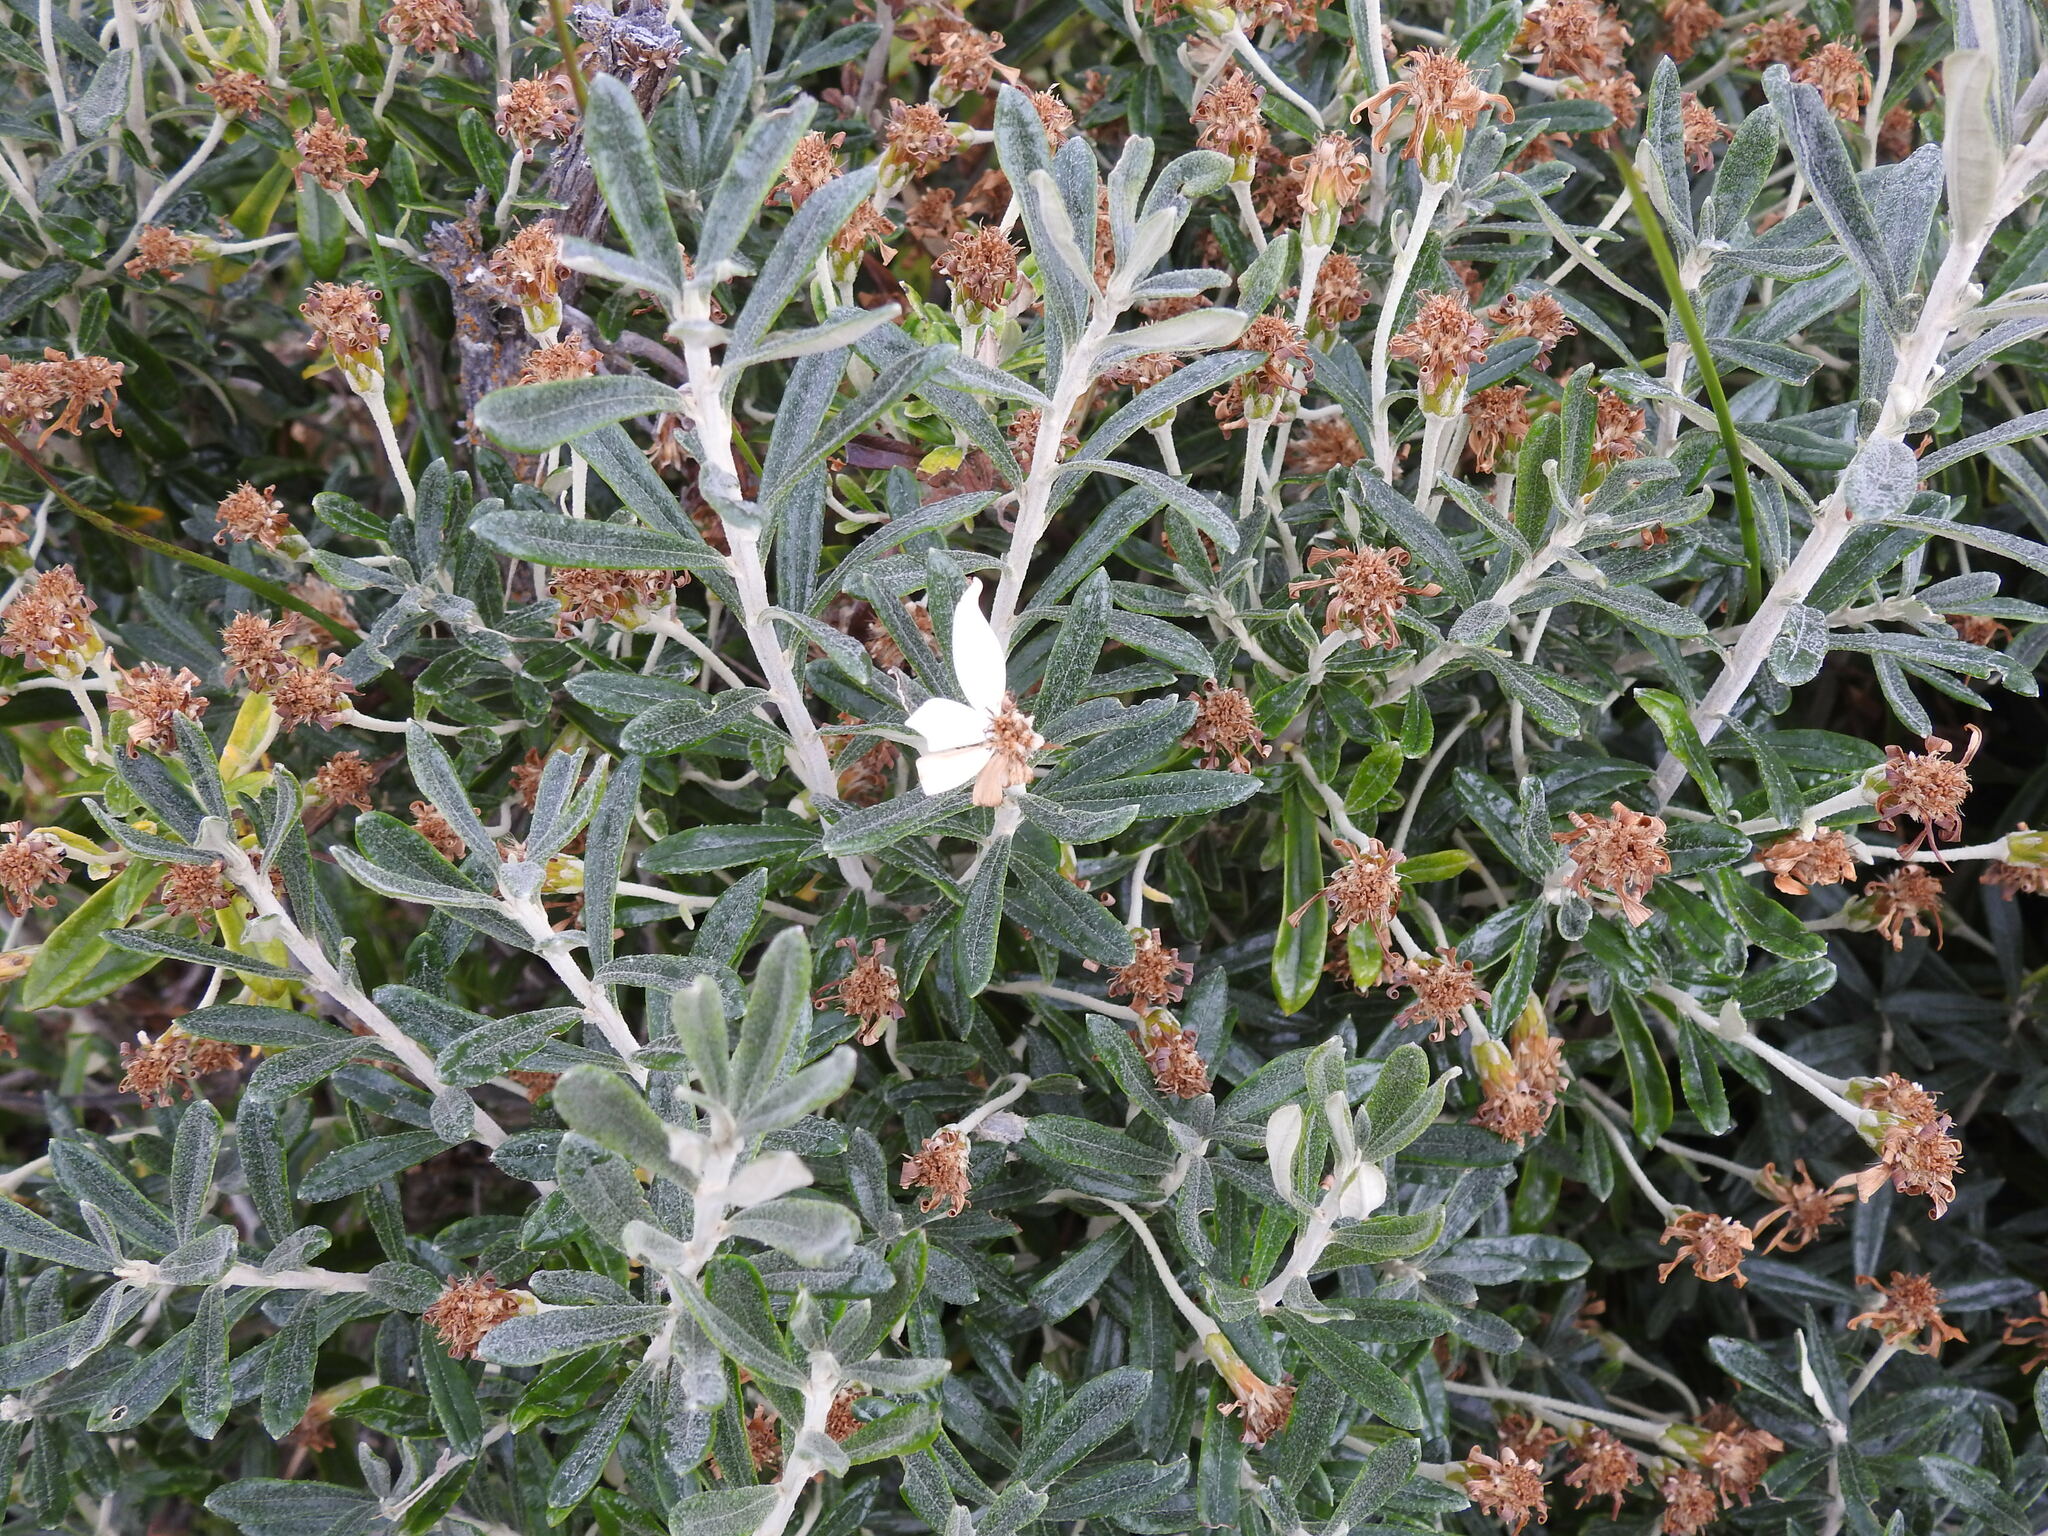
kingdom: Plantae
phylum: Tracheophyta
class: Magnoliopsida
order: Asterales
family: Asteraceae
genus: Chiliotrichum
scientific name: Chiliotrichum diffusum
